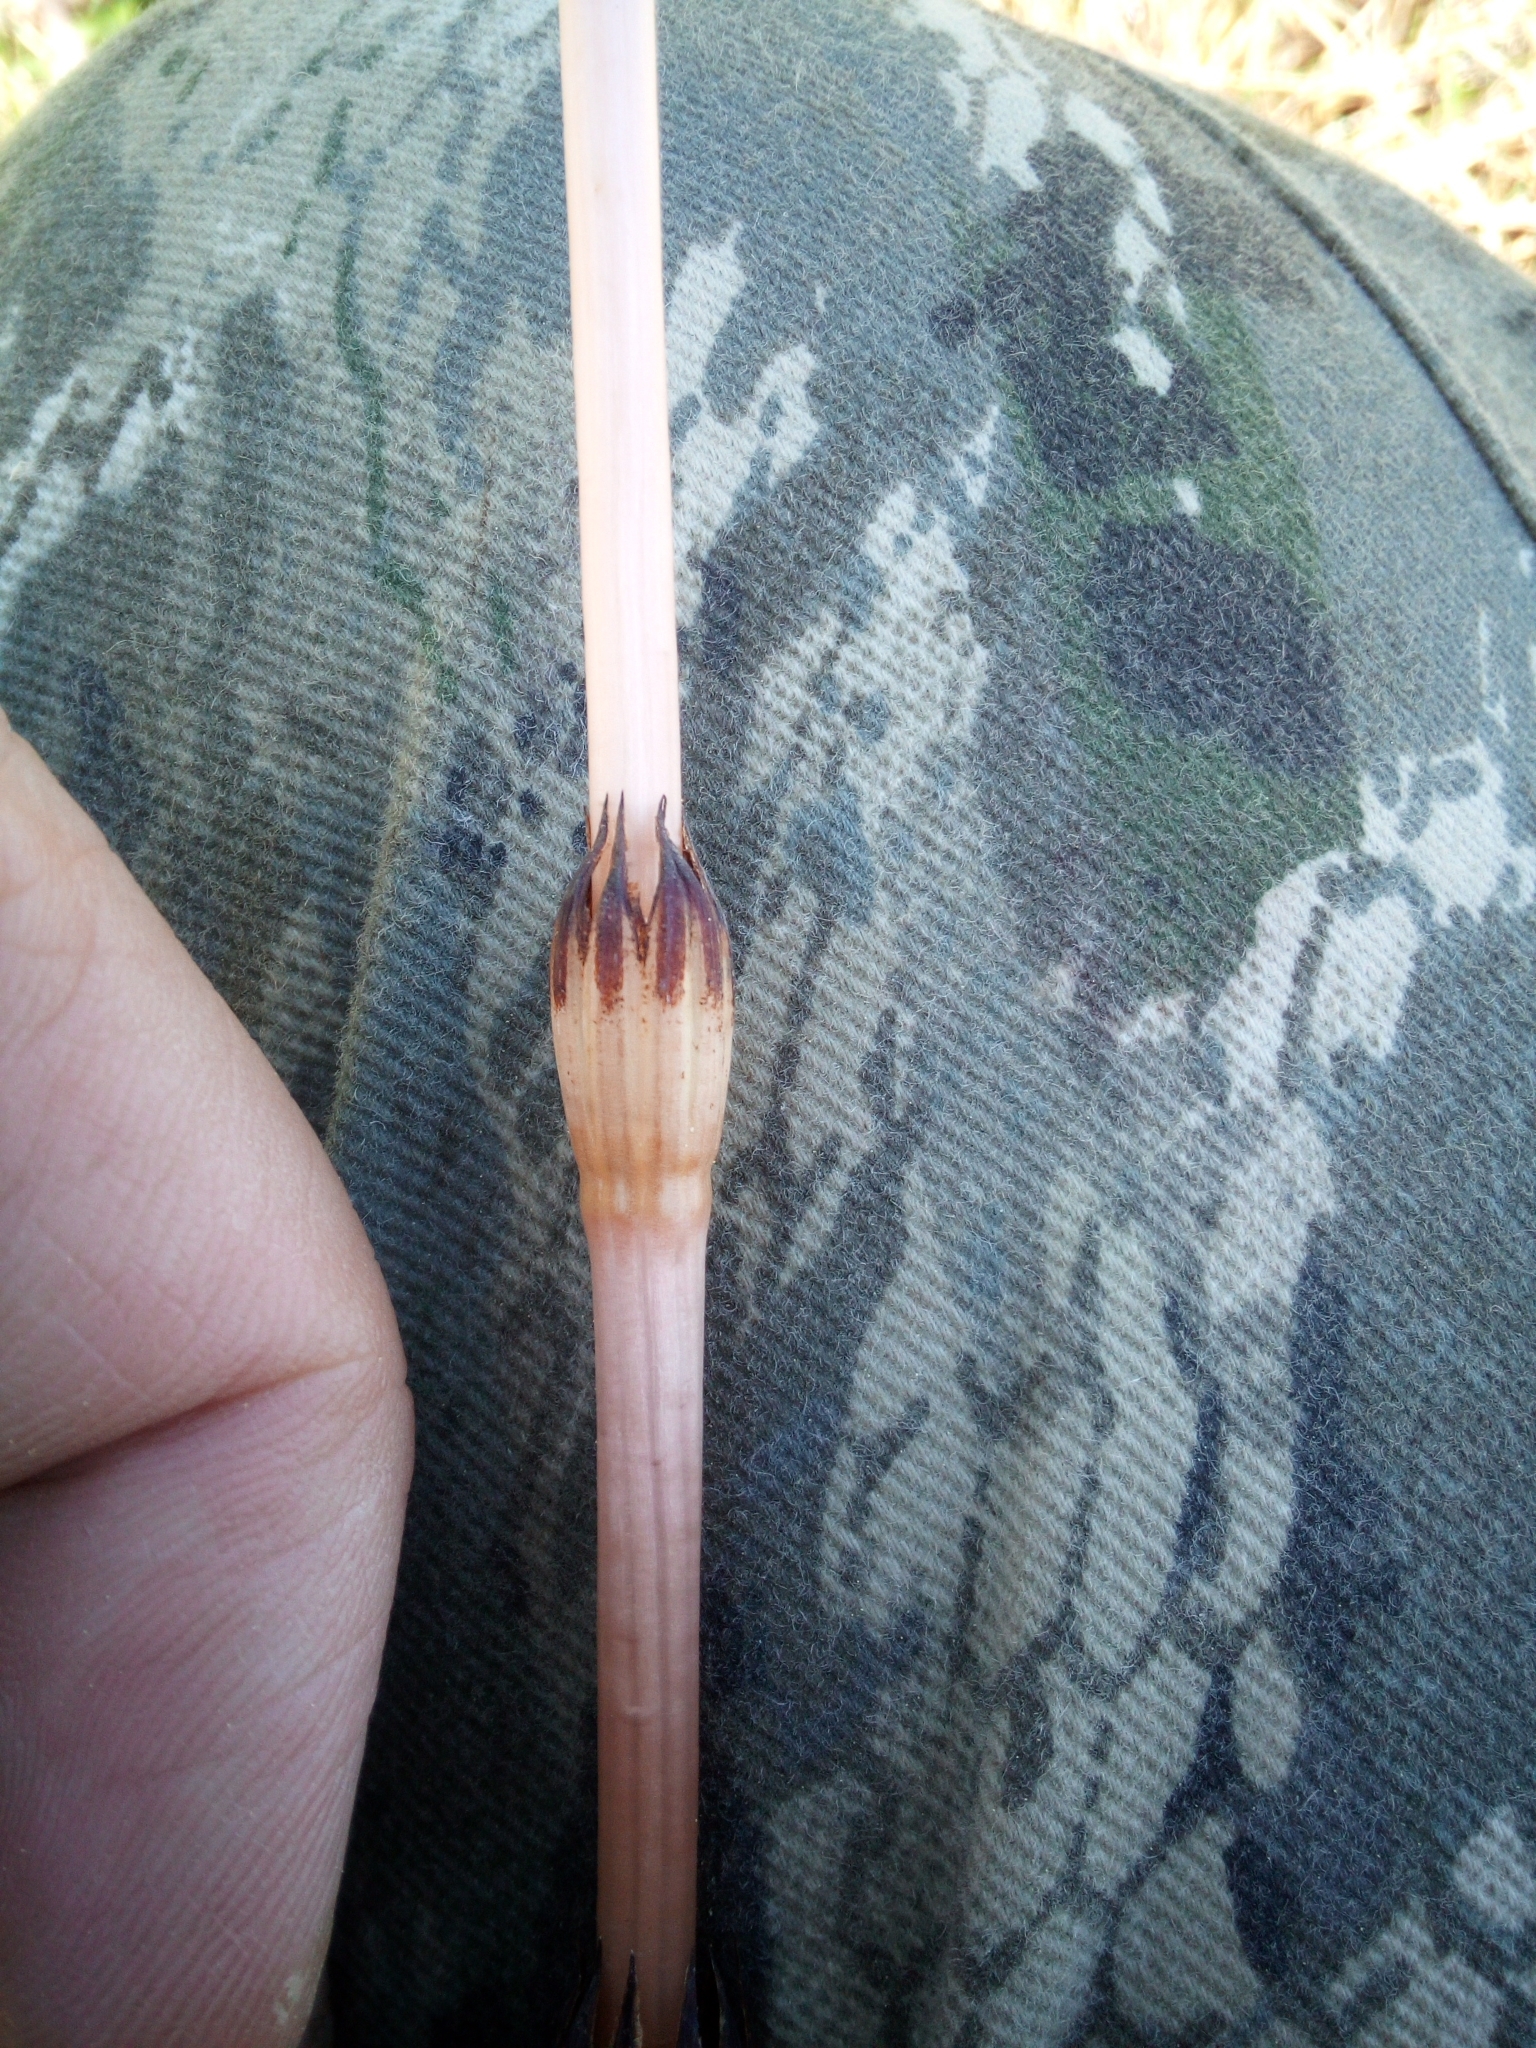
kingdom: Plantae
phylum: Tracheophyta
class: Polypodiopsida
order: Equisetales
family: Equisetaceae
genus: Equisetum
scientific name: Equisetum arvense
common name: Field horsetail
